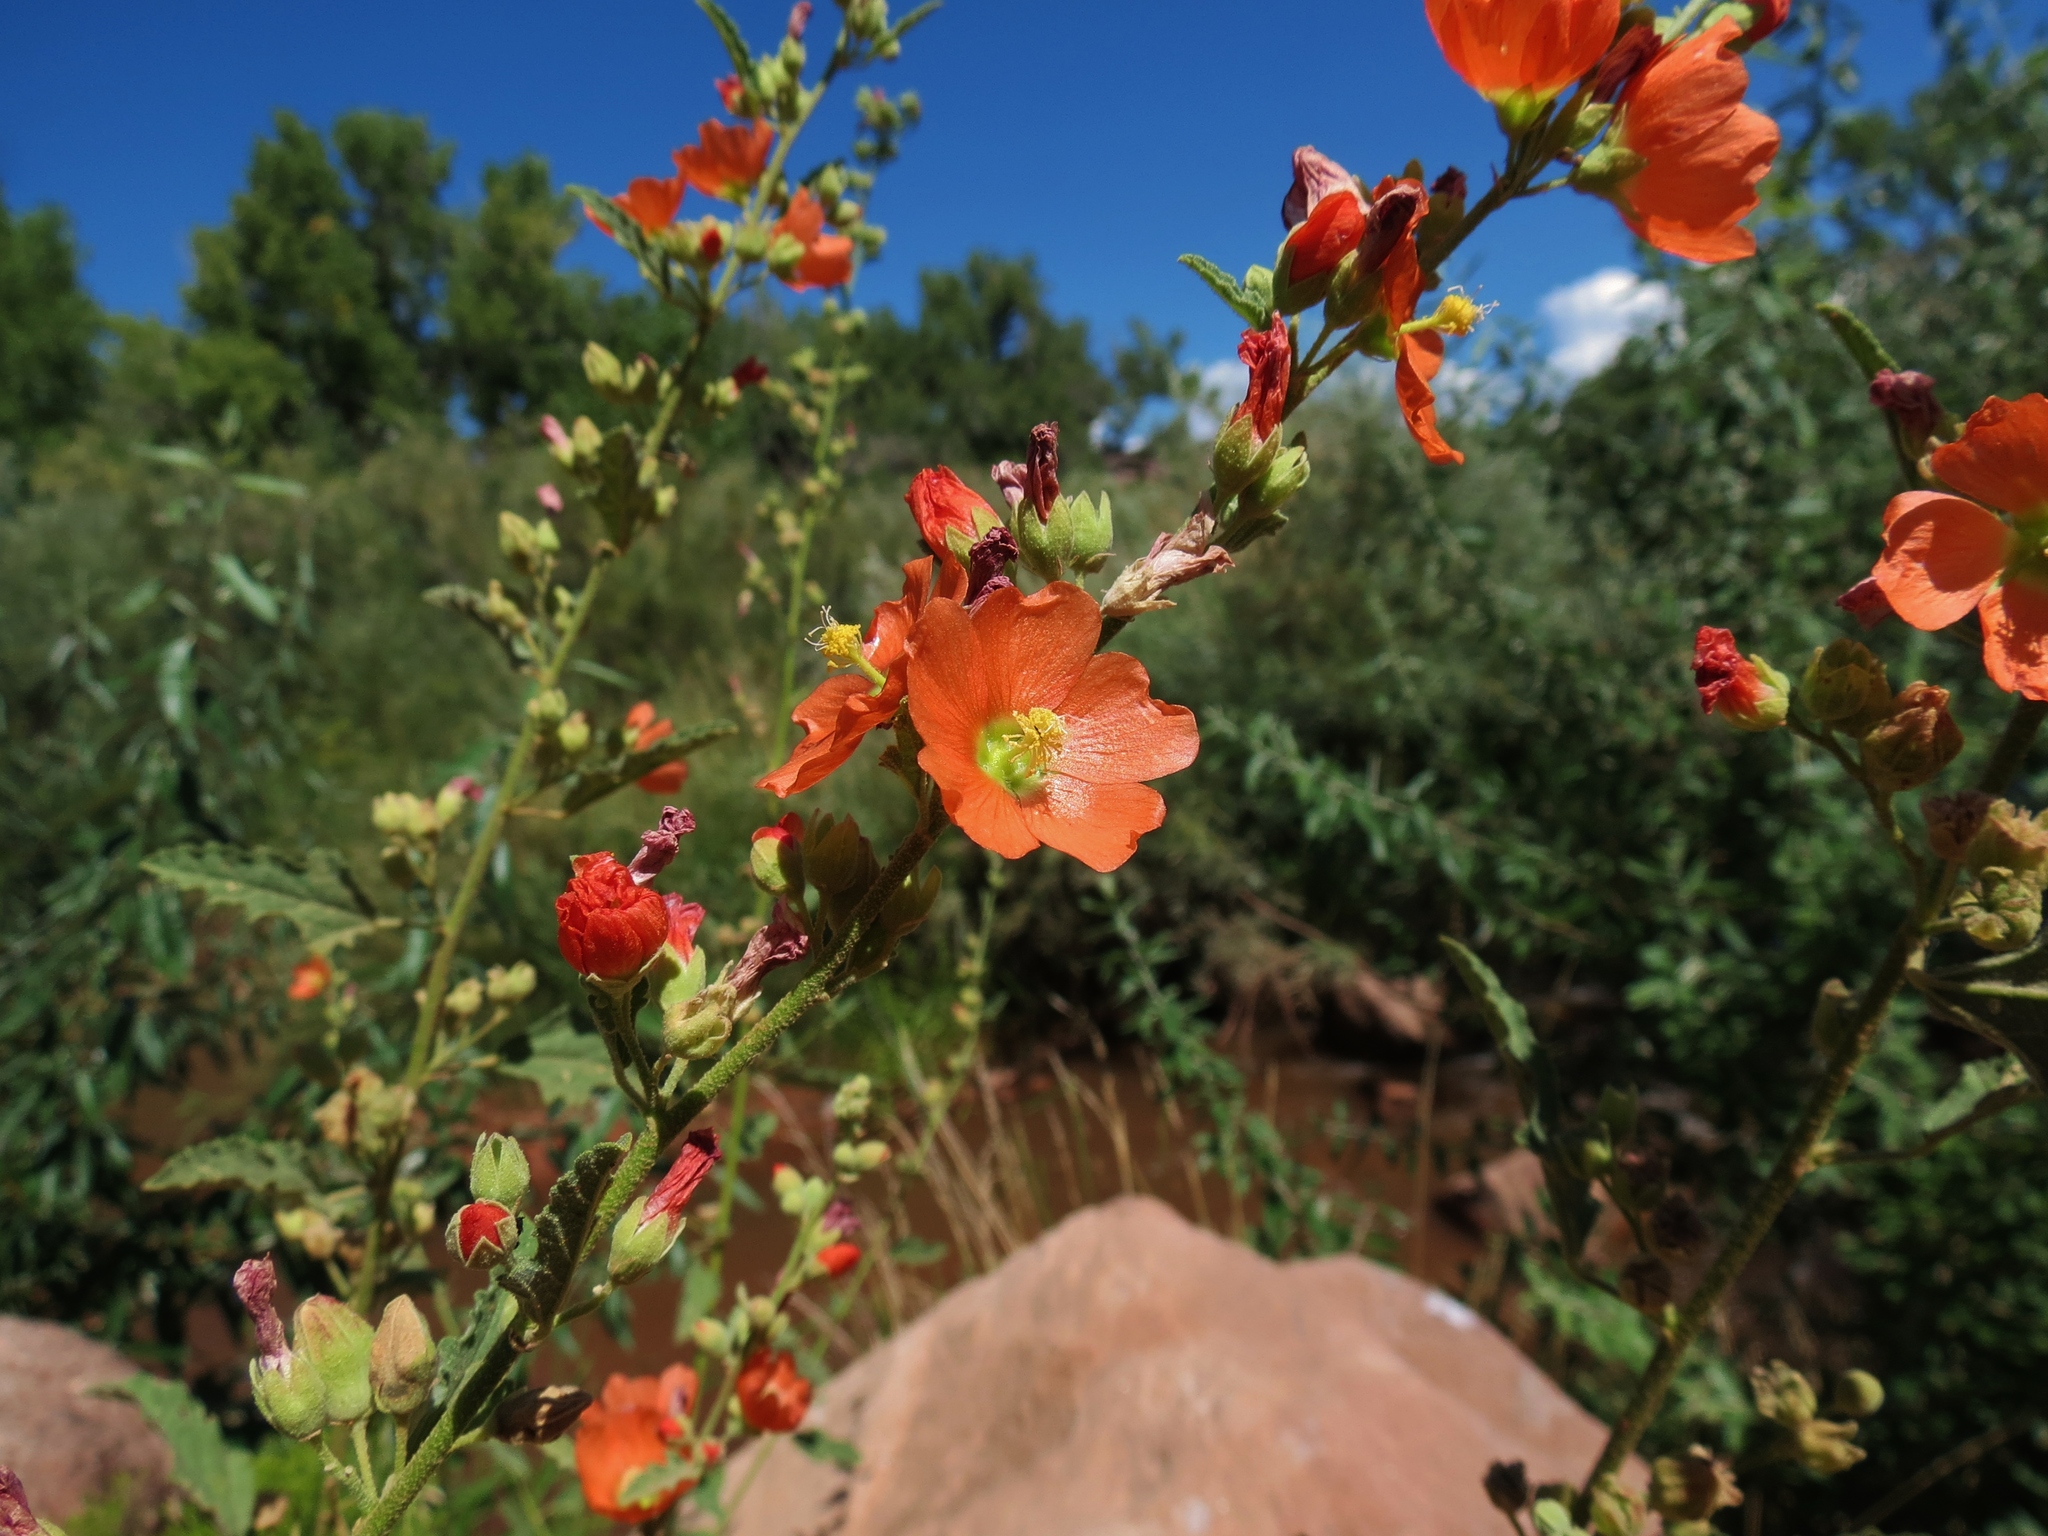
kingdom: Plantae
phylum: Tracheophyta
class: Magnoliopsida
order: Malvales
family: Malvaceae
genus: Sphaeralcea
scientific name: Sphaeralcea fendleri
